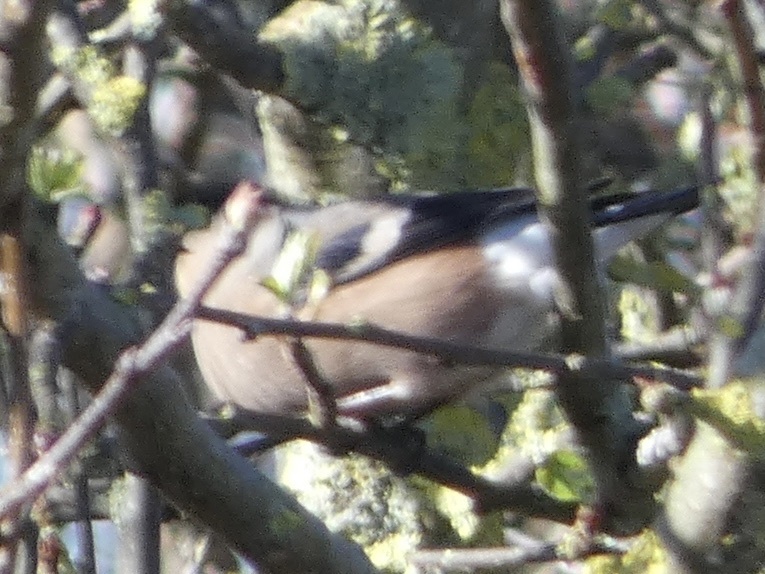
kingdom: Animalia
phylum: Chordata
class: Aves
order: Passeriformes
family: Fringillidae
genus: Pyrrhula
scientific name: Pyrrhula pyrrhula
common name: Eurasian bullfinch
